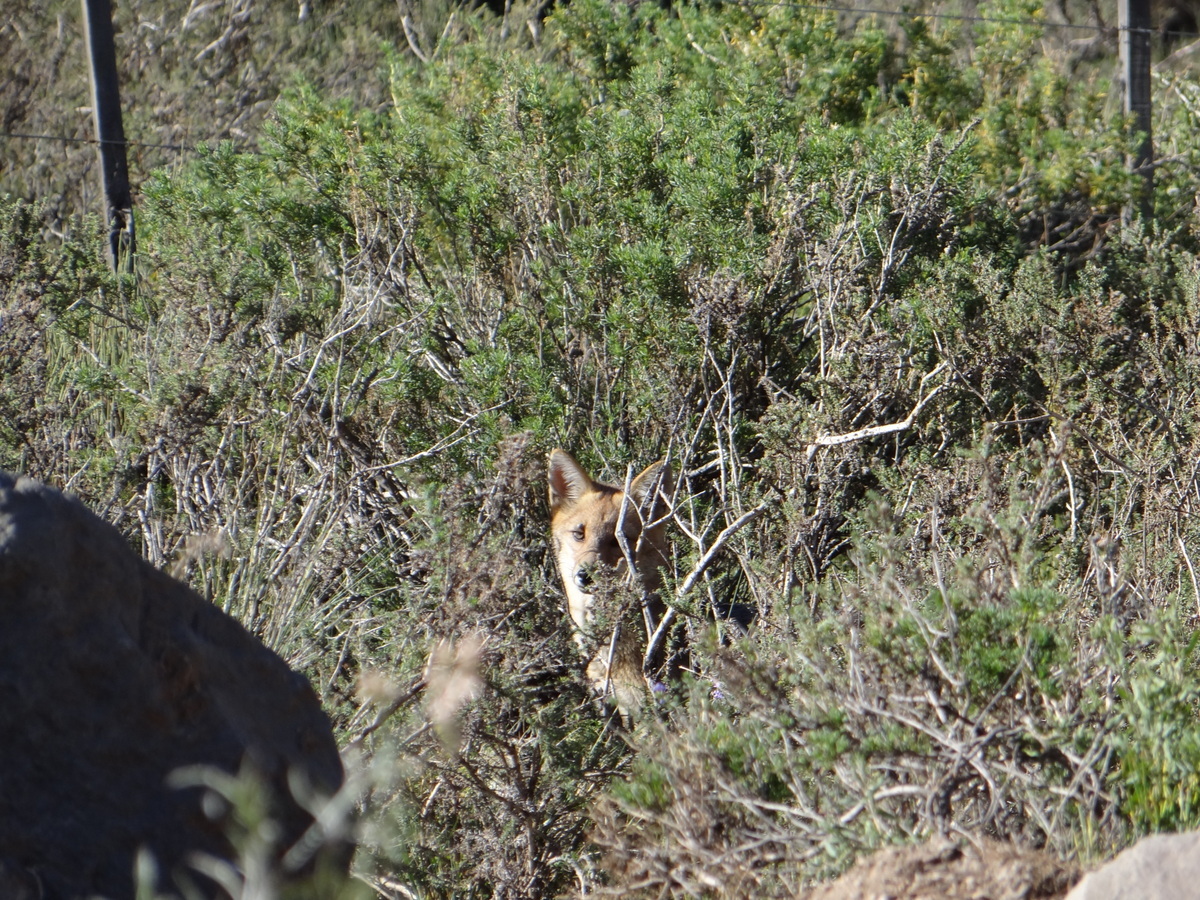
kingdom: Animalia
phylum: Chordata
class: Mammalia
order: Carnivora
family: Canidae
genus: Lycalopex
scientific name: Lycalopex culpaeus
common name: Culpeo
